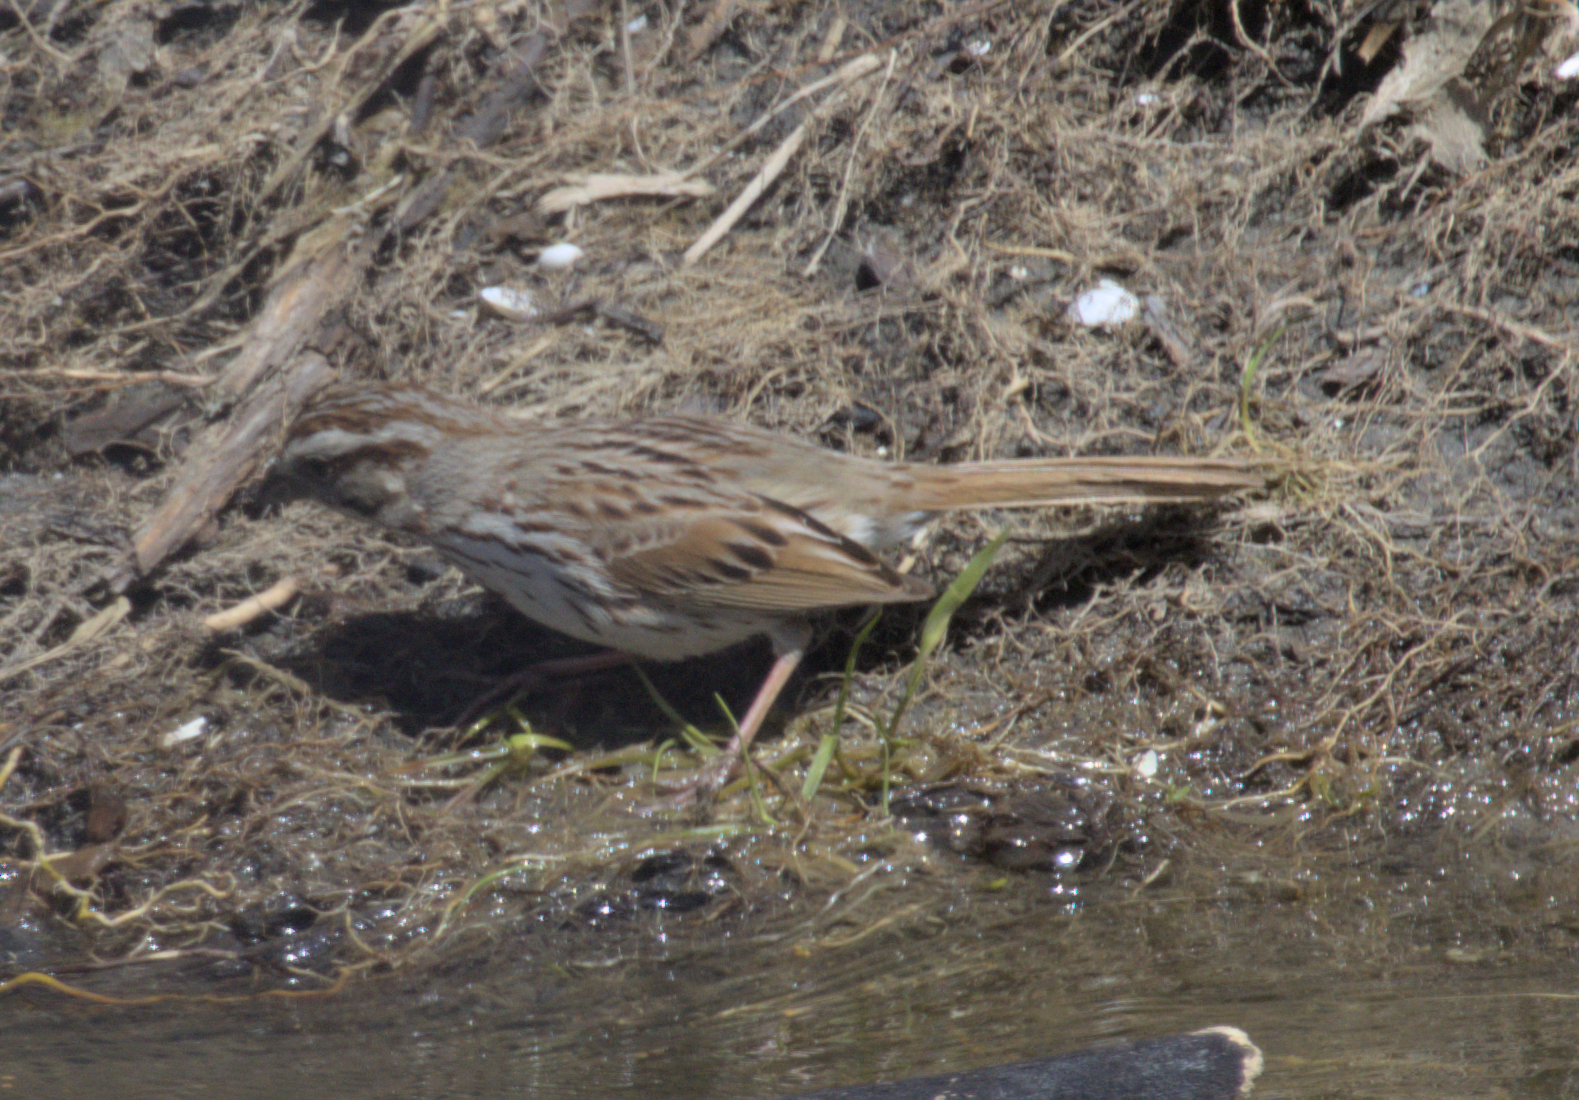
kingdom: Animalia
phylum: Chordata
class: Aves
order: Passeriformes
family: Passerellidae
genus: Melospiza
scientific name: Melospiza melodia
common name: Song sparrow
